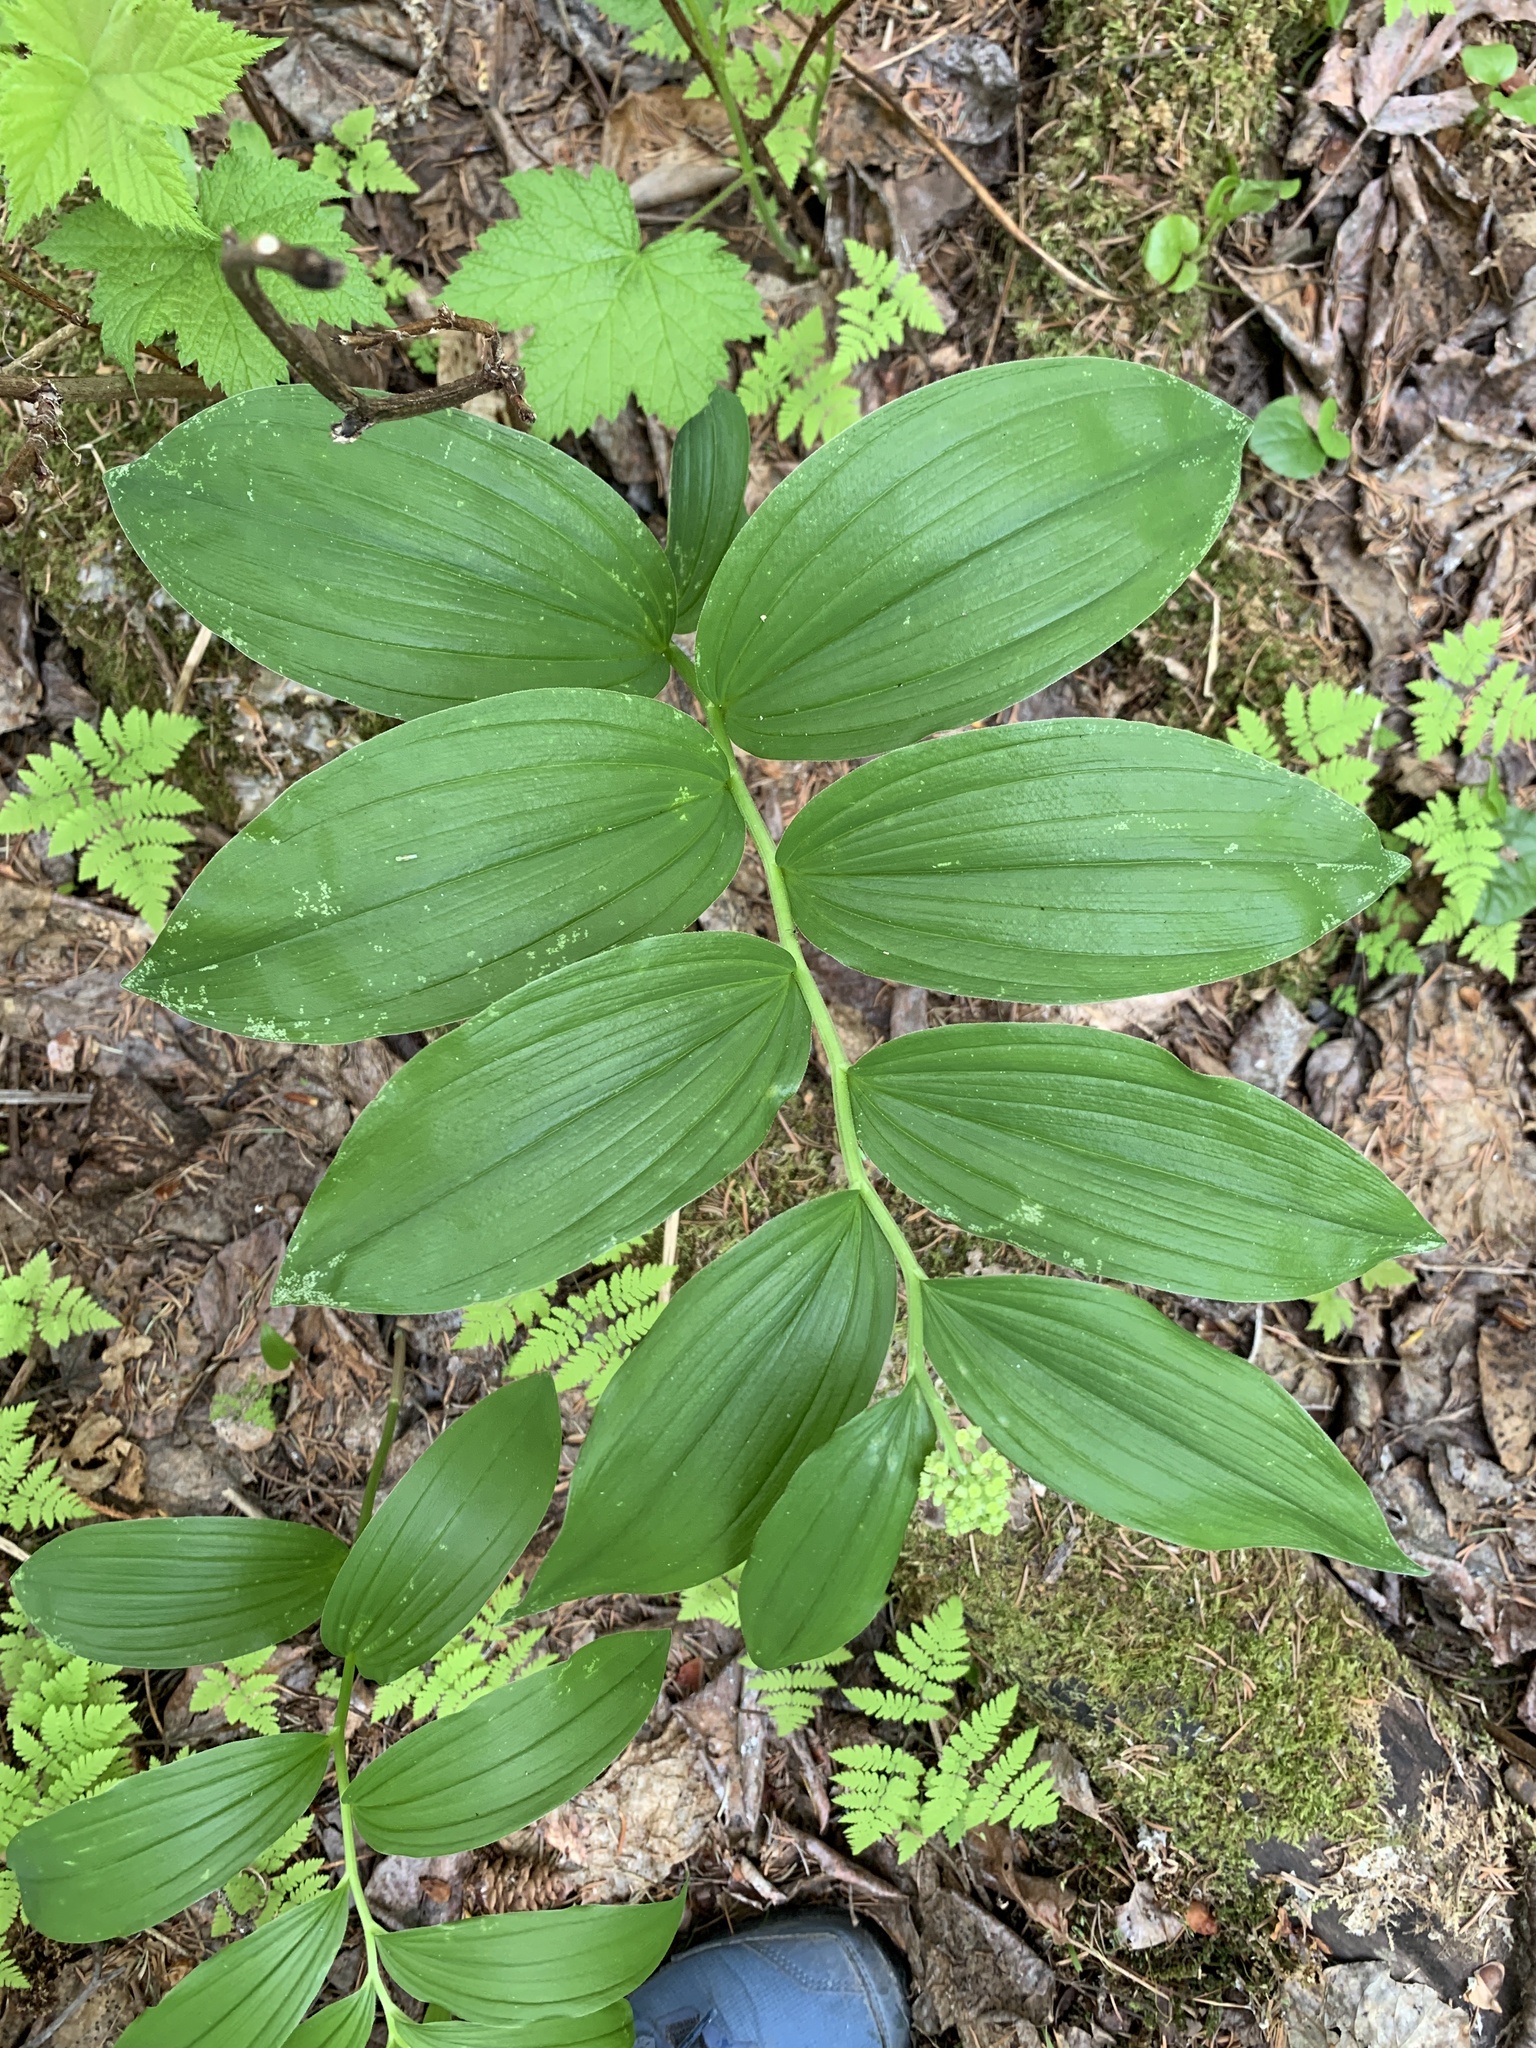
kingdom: Plantae
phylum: Tracheophyta
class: Liliopsida
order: Asparagales
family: Asparagaceae
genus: Maianthemum
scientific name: Maianthemum racemosum
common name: False spikenard
